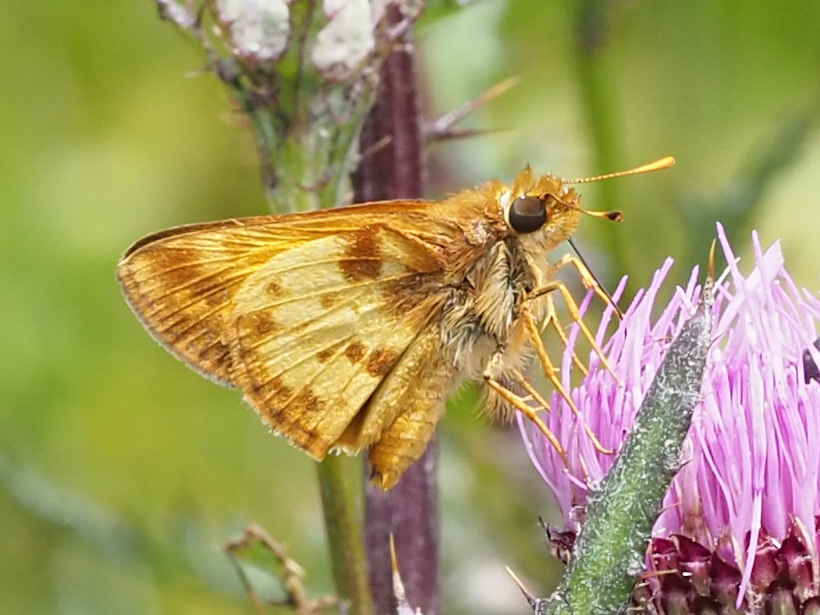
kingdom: Animalia
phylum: Arthropoda
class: Insecta
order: Lepidoptera
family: Hesperiidae
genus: Lon
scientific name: Lon zabulon
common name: Zabulon skipper
